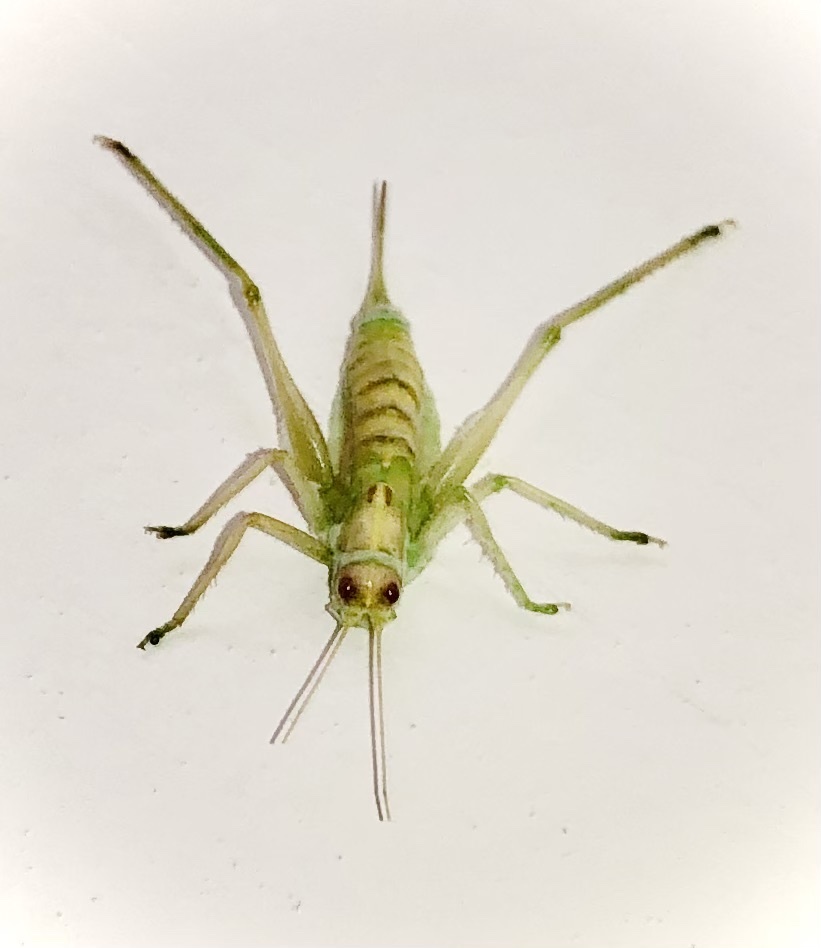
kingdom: Animalia
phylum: Arthropoda
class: Insecta
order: Orthoptera
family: Tettigoniidae
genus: Meconema
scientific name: Meconema meridionale
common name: Southern oak bush-cricket
